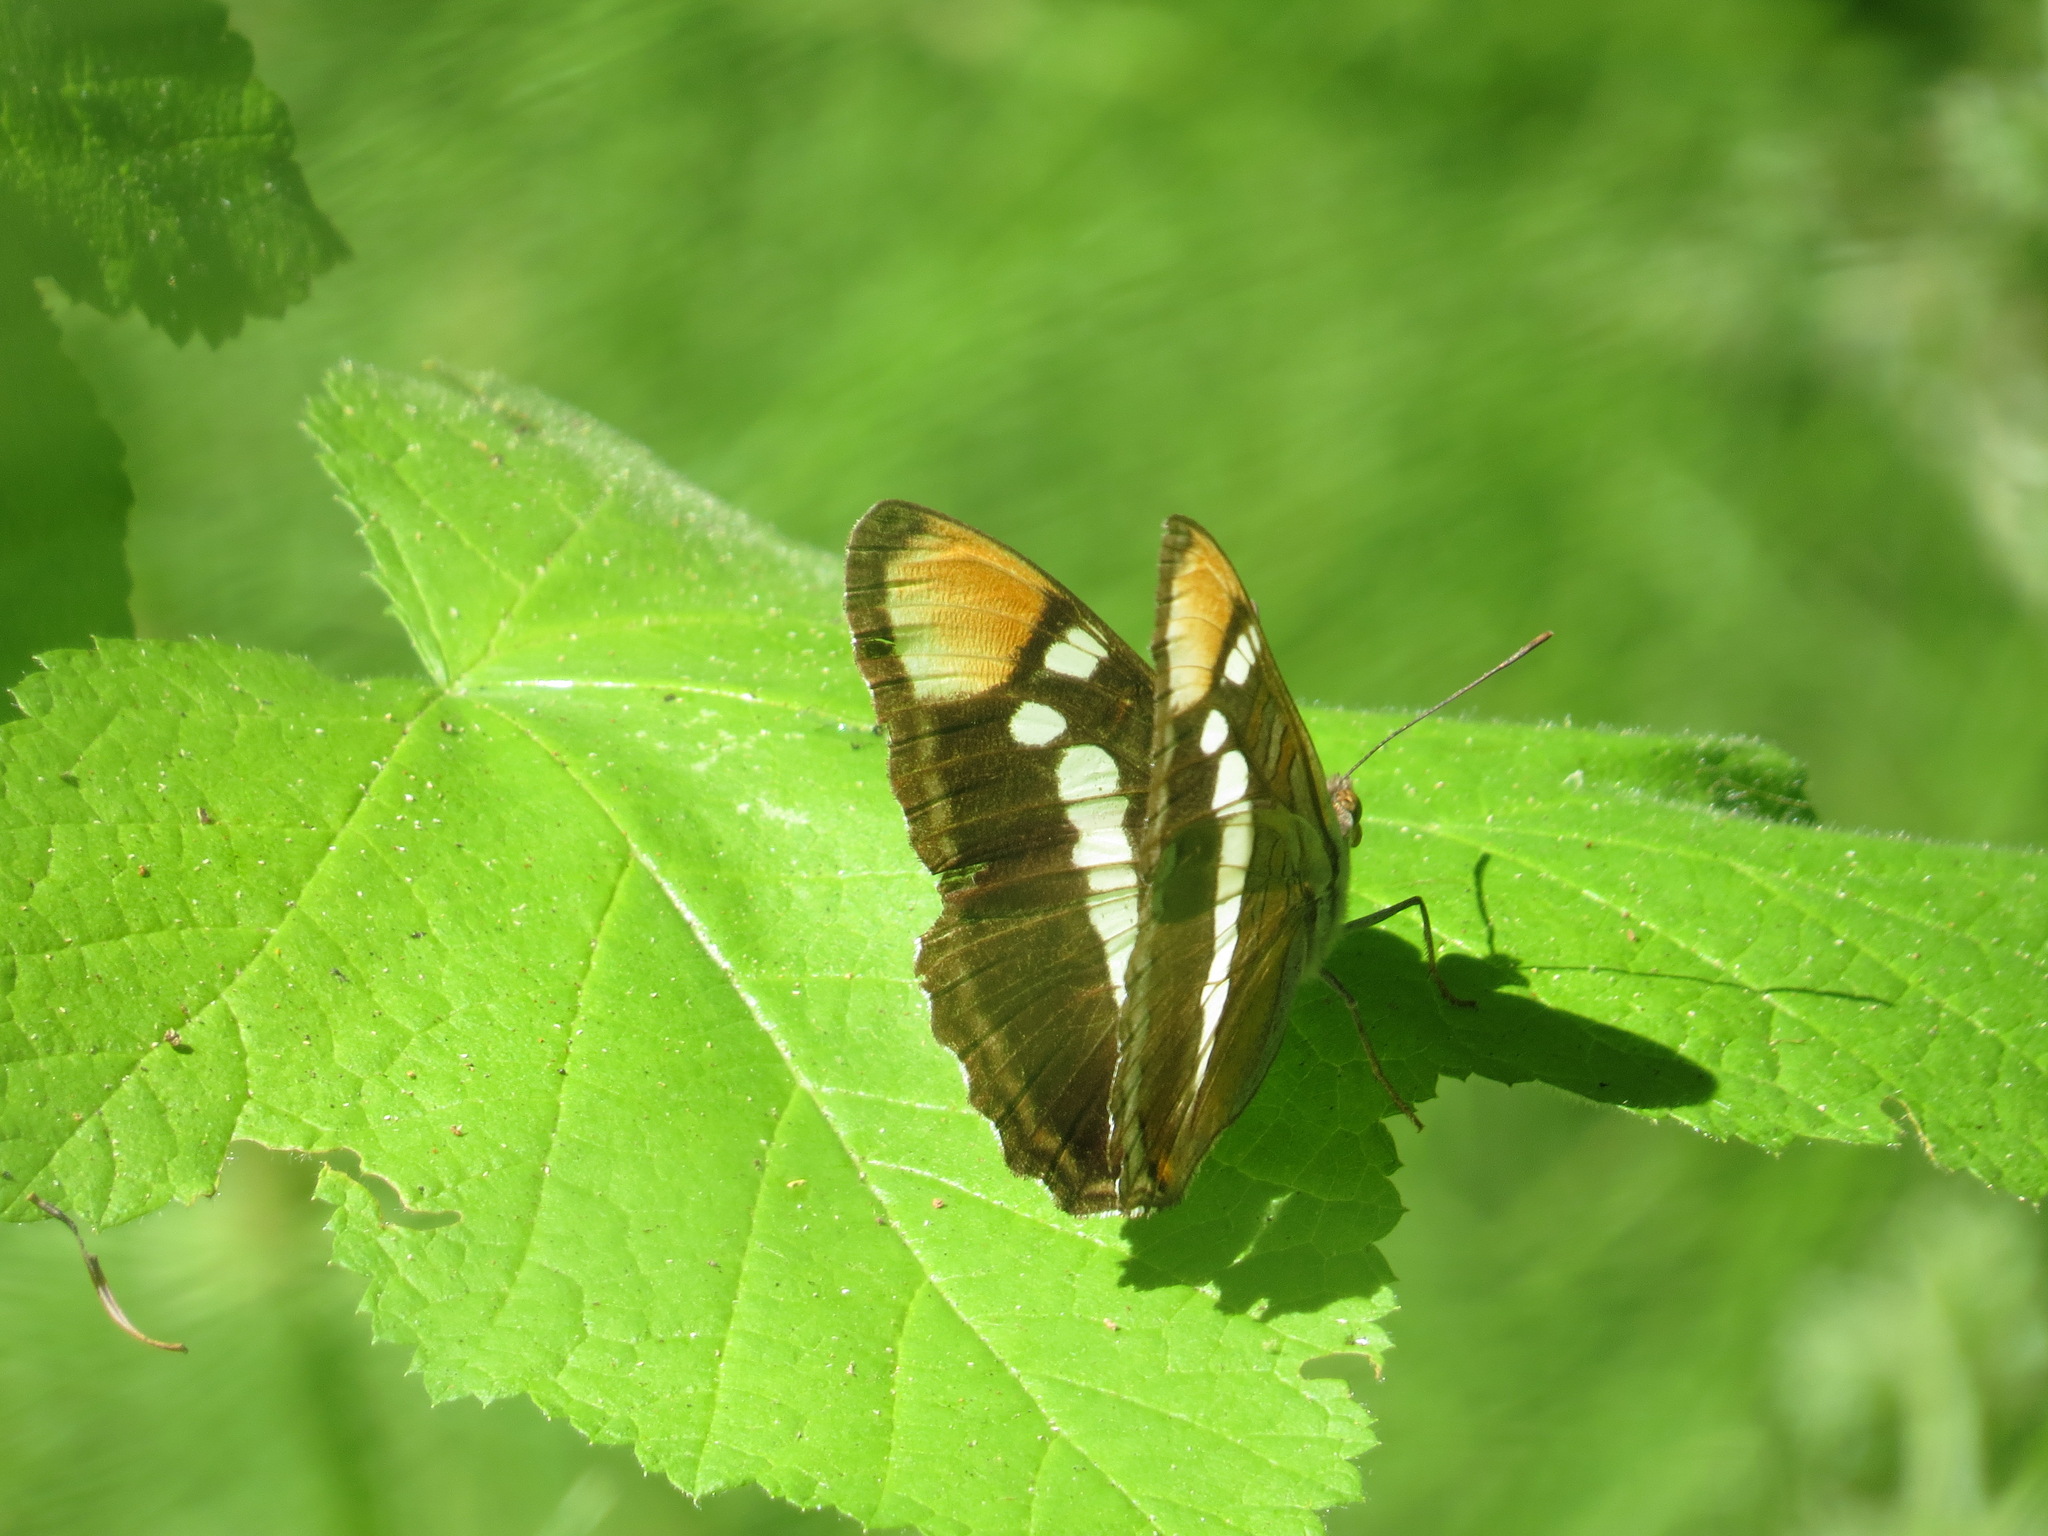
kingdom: Animalia
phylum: Arthropoda
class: Insecta
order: Lepidoptera
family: Nymphalidae
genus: Limenitis
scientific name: Limenitis bredowii
